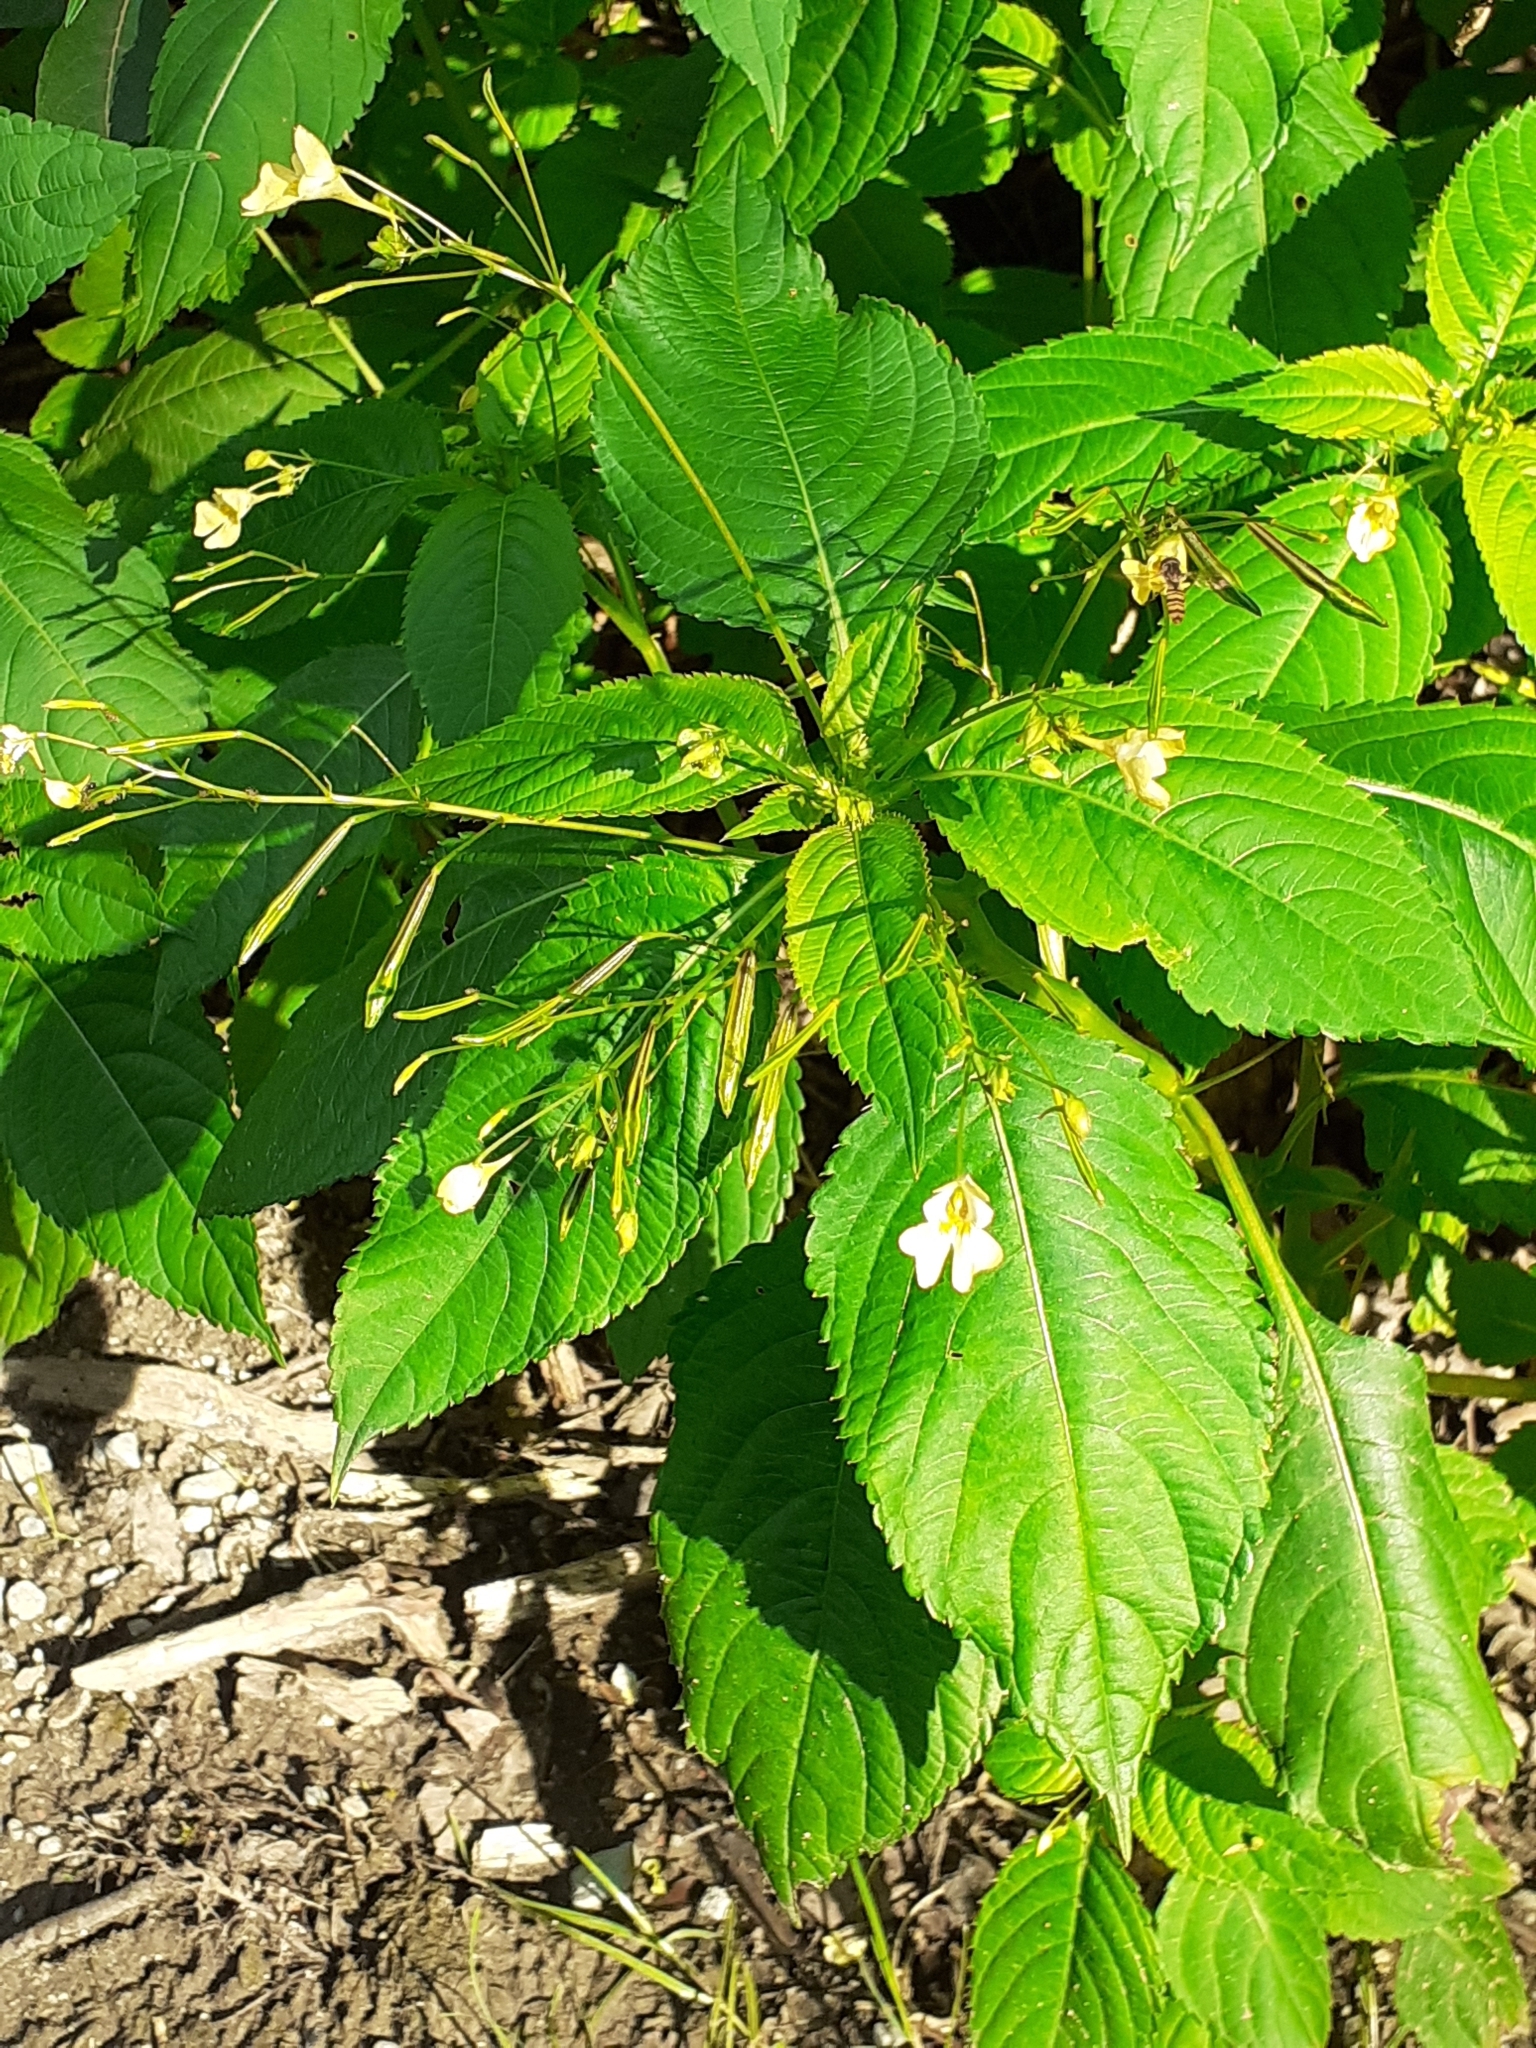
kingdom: Plantae
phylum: Tracheophyta
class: Magnoliopsida
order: Ericales
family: Balsaminaceae
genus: Impatiens
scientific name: Impatiens parviflora
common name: Small balsam
